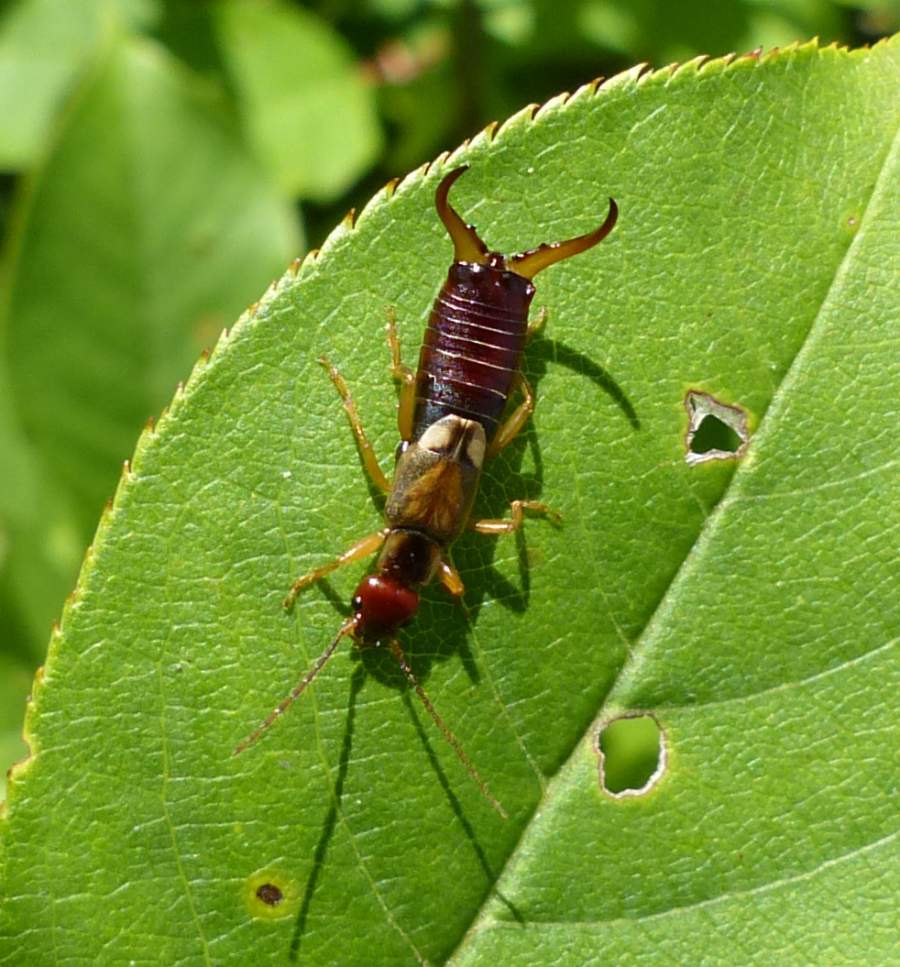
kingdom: Animalia
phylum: Arthropoda
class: Insecta
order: Dermaptera
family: Forficulidae
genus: Forficula
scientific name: Forficula
